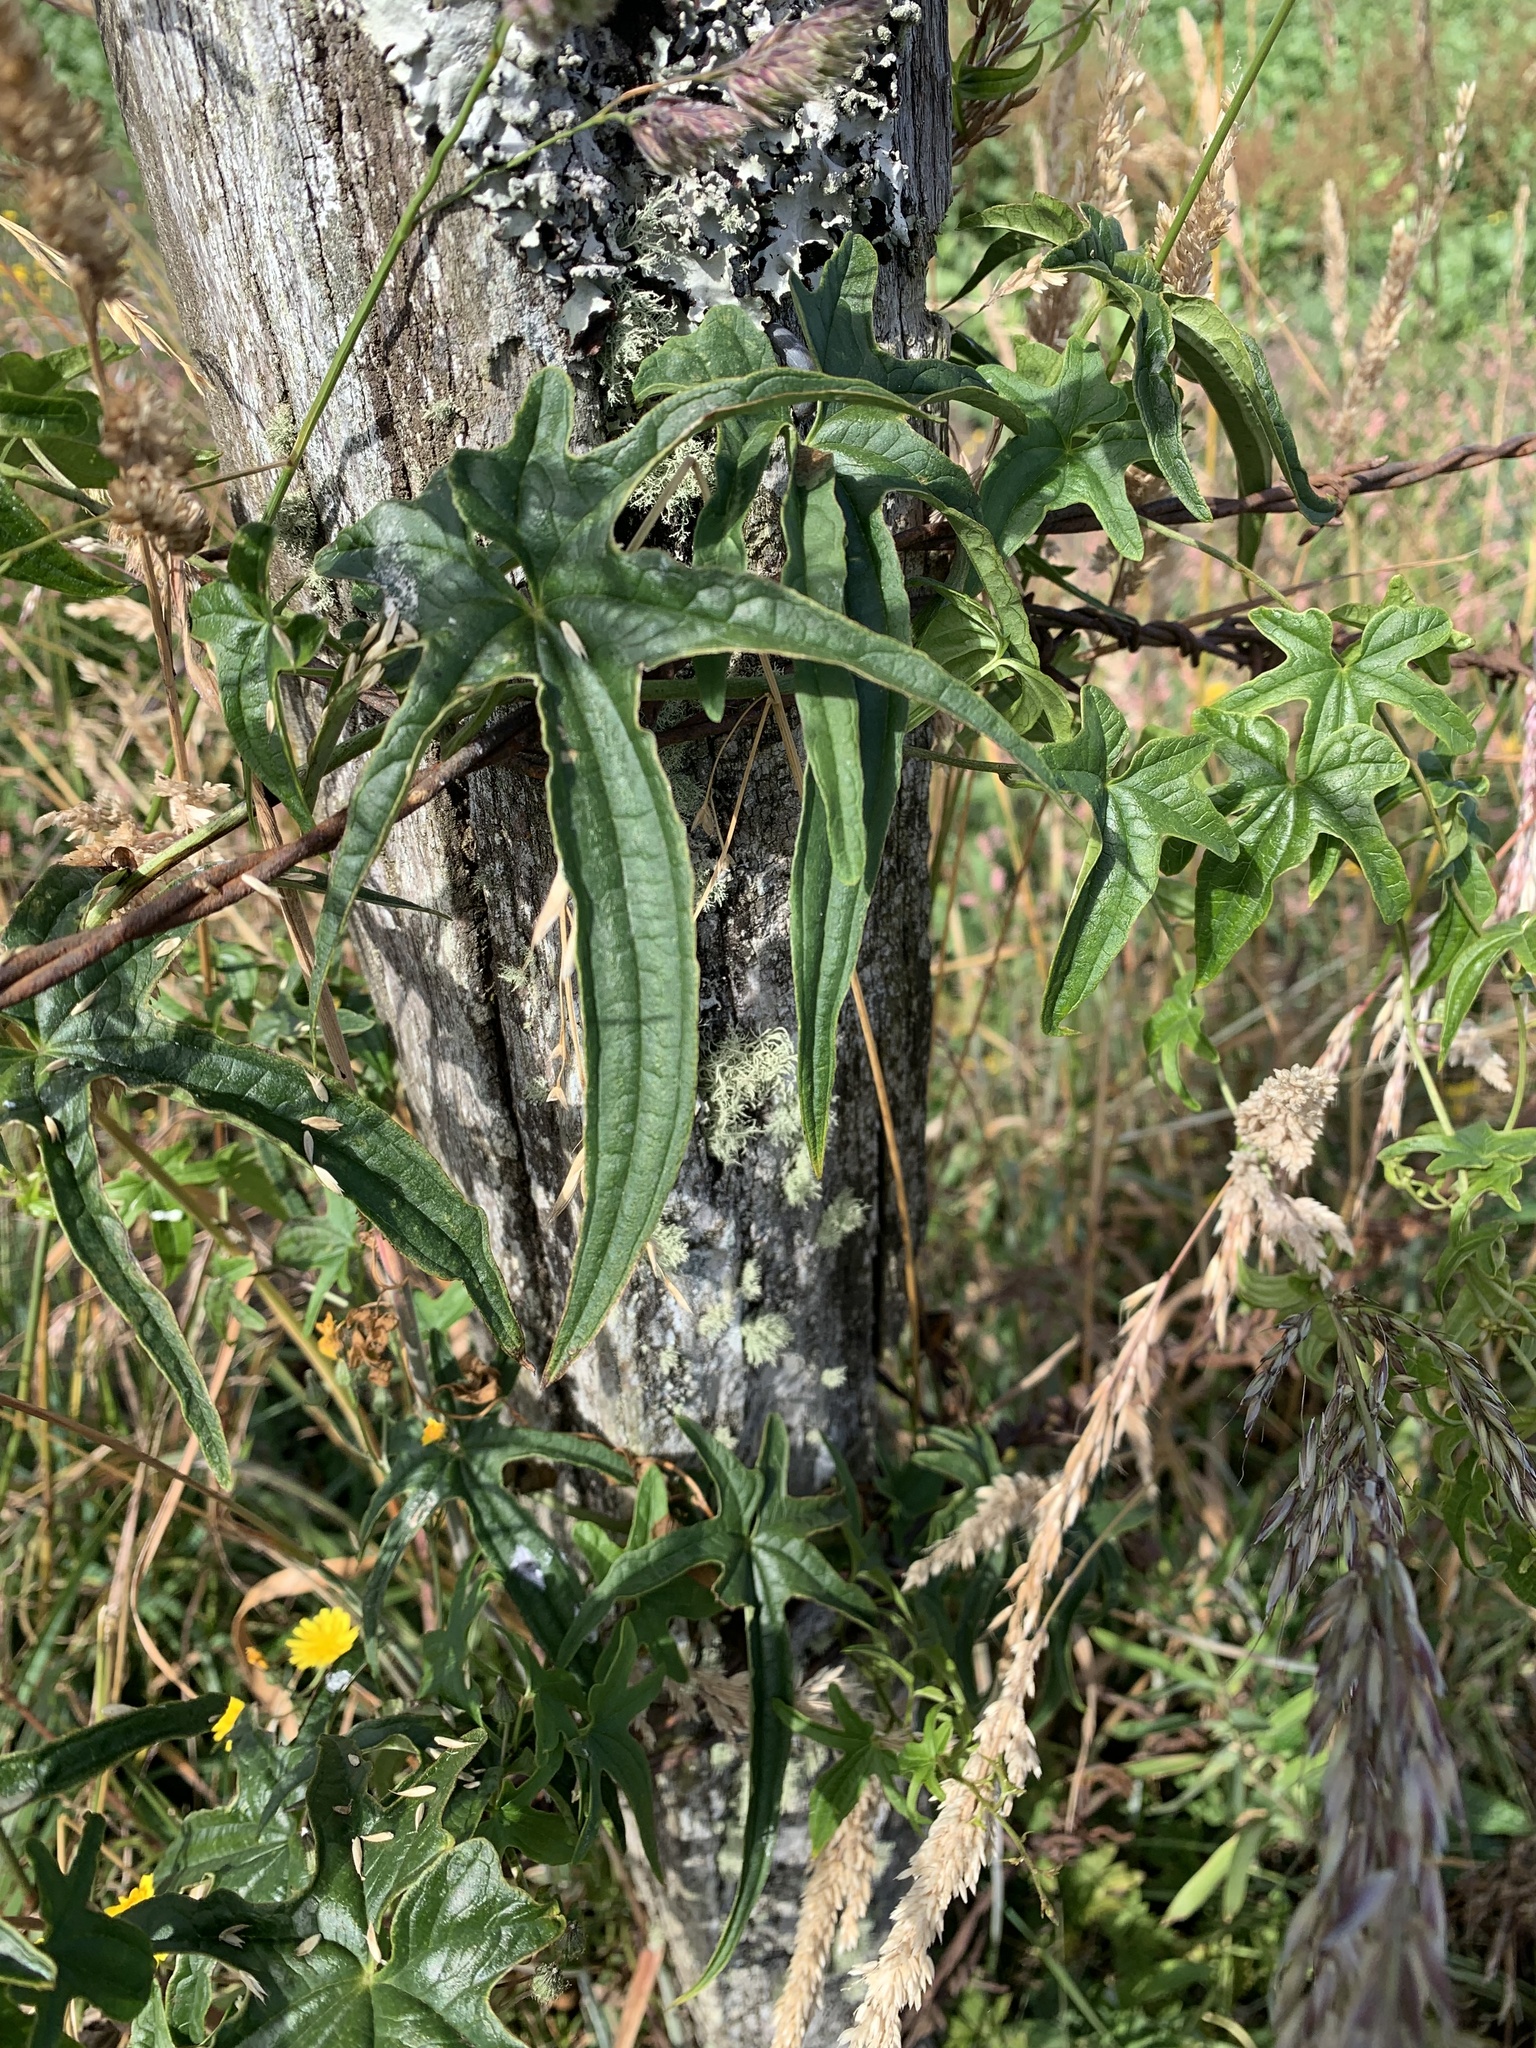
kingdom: Plantae
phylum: Tracheophyta
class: Liliopsida
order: Dioscoreales
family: Dioscoreaceae
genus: Dioscorea
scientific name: Dioscorea brachybotrya
